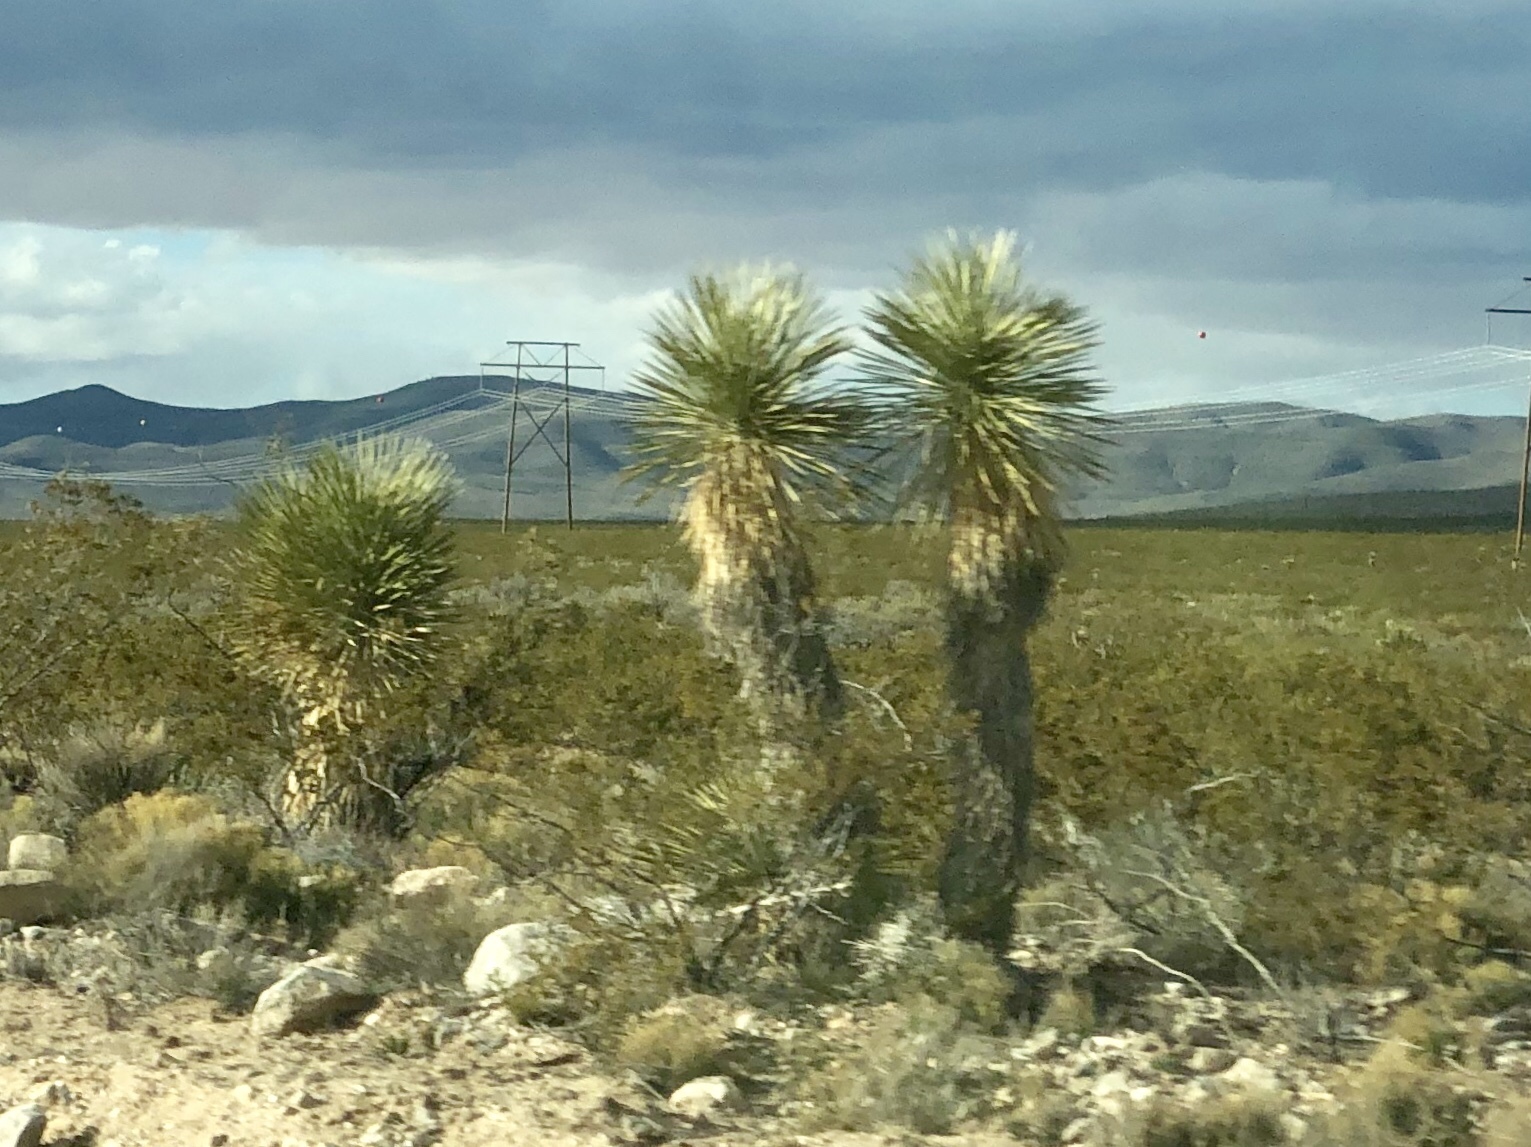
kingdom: Plantae
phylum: Tracheophyta
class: Liliopsida
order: Asparagales
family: Asparagaceae
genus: Yucca
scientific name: Yucca elata
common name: Palmella
